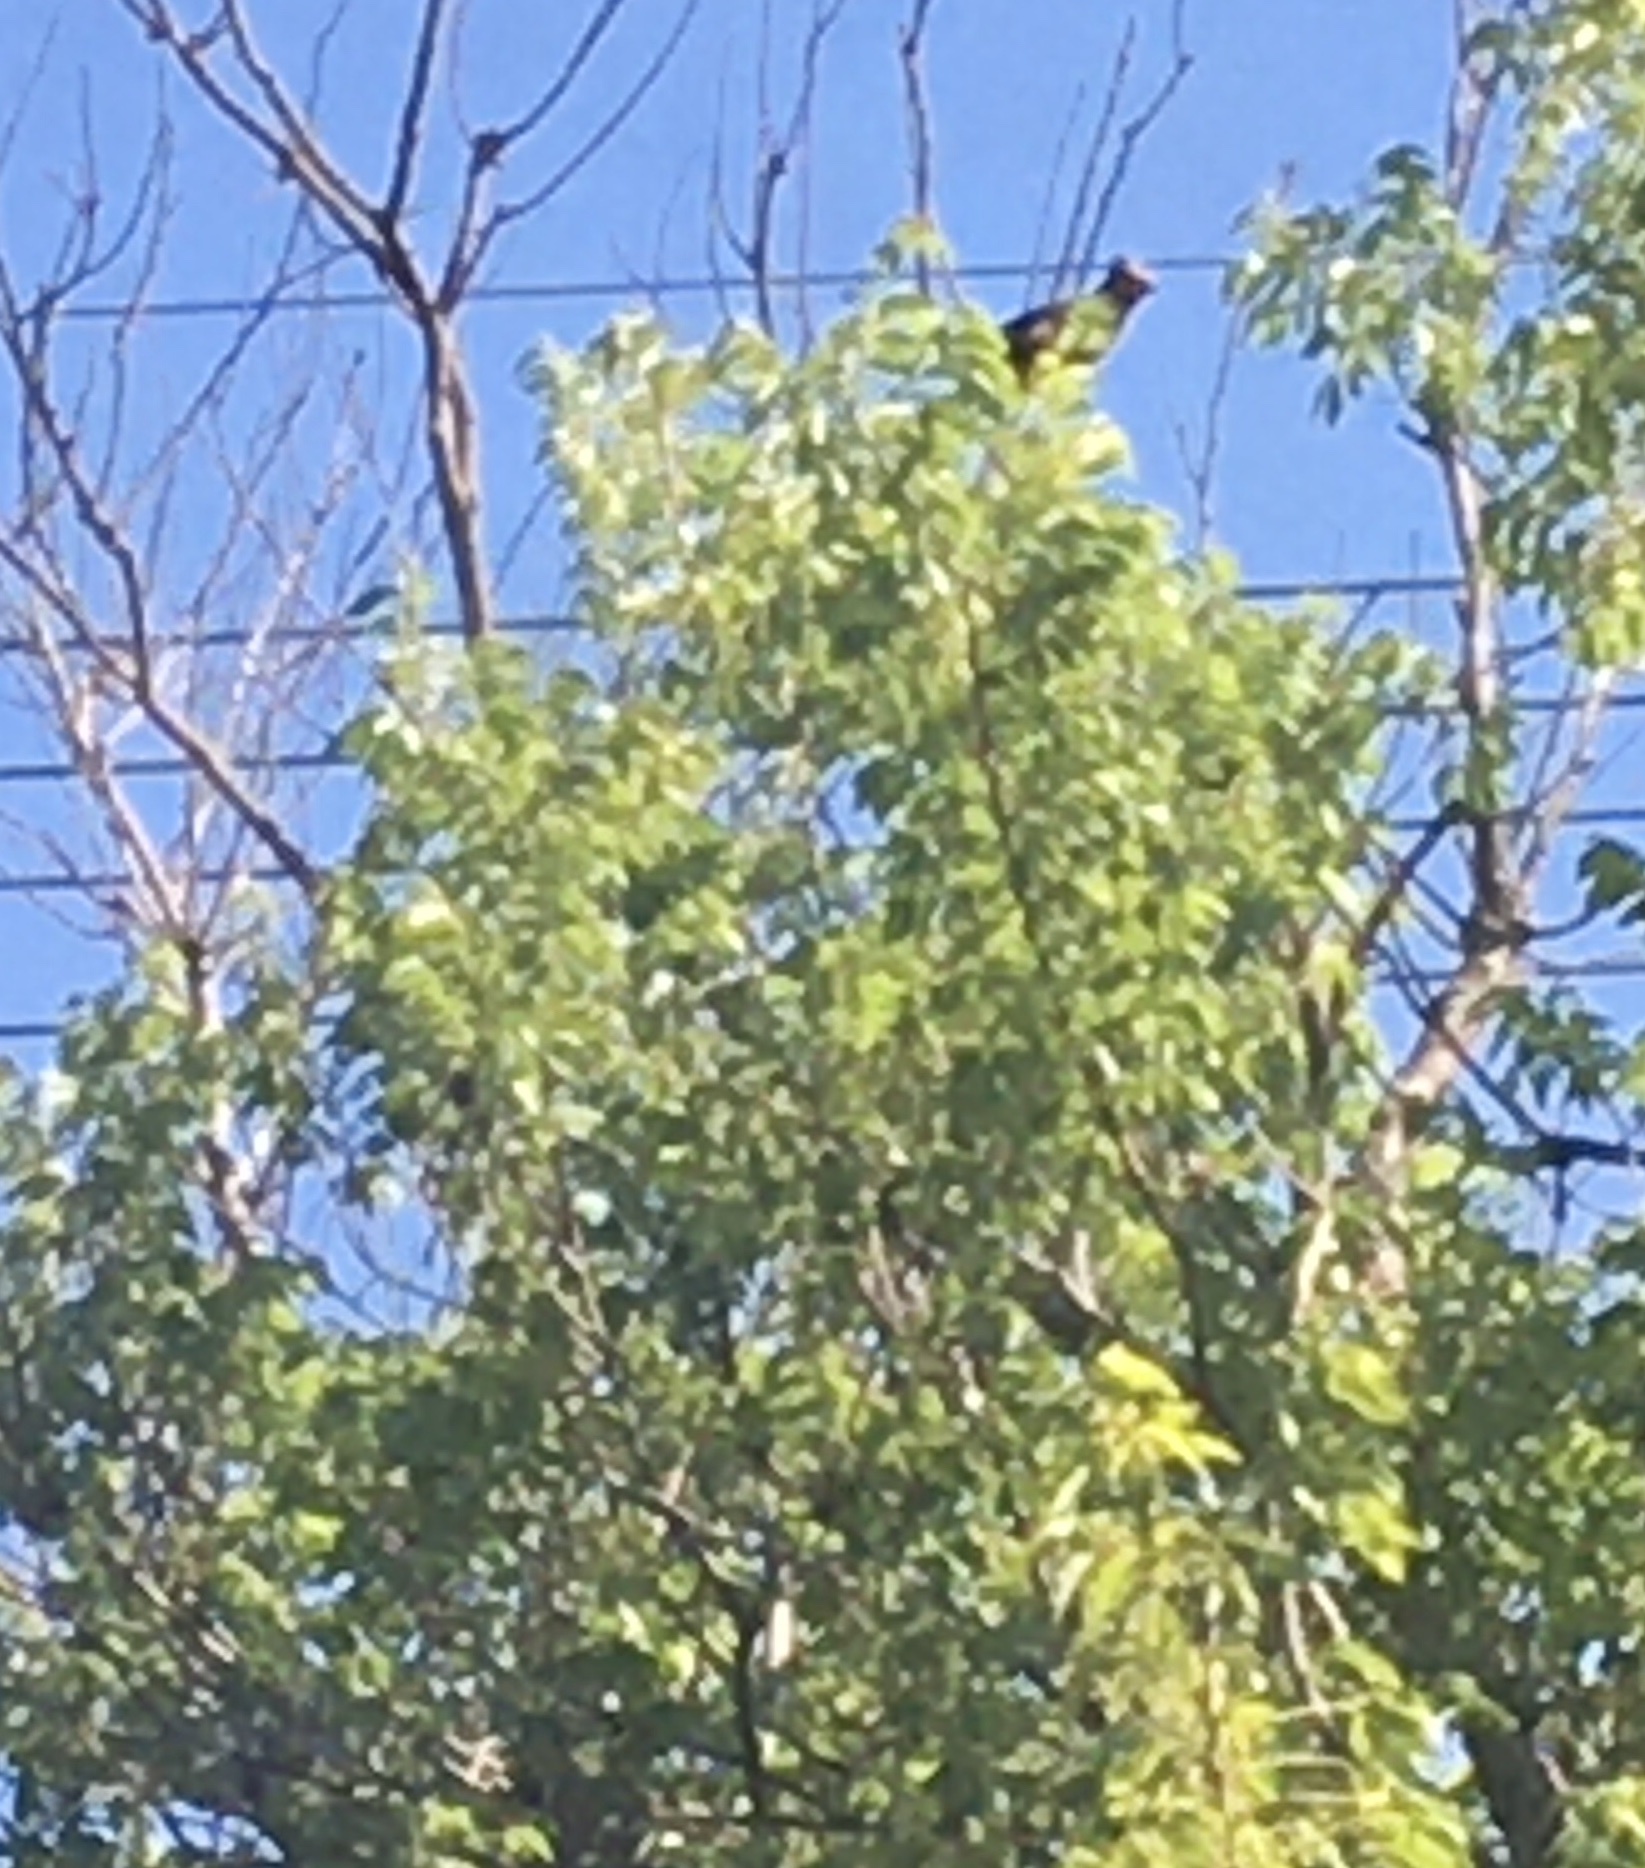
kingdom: Animalia
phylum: Chordata
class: Aves
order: Coliiformes
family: Coliidae
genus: Urocolius
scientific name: Urocolius indicus
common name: Red-faced mousebird
